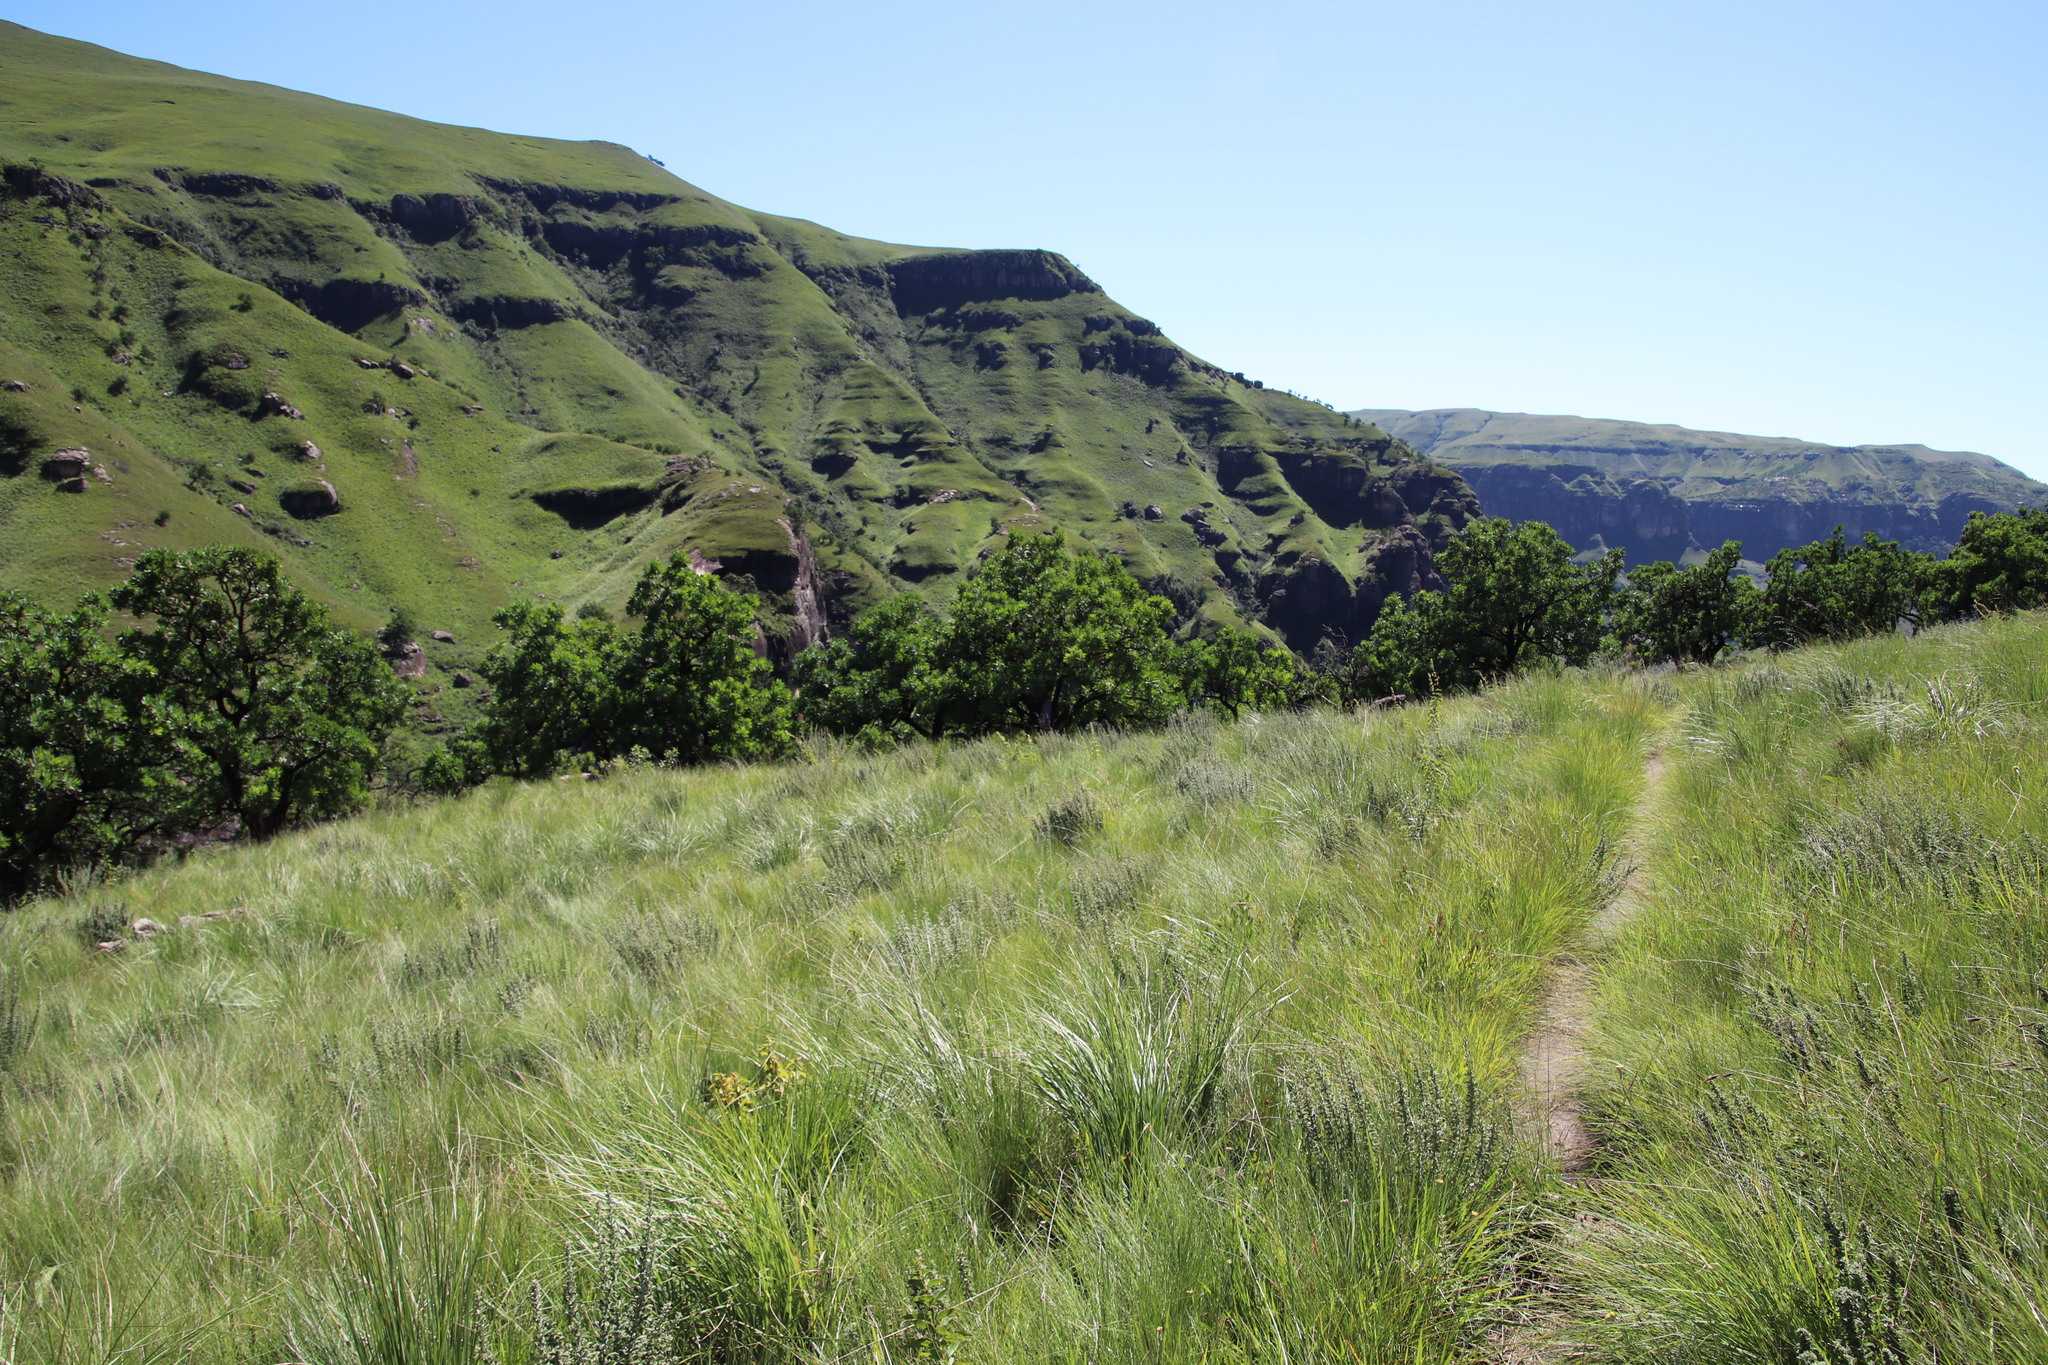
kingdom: Plantae
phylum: Tracheophyta
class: Magnoliopsida
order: Proteales
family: Proteaceae
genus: Protea
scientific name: Protea roupelliae
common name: Silver sugarbush
